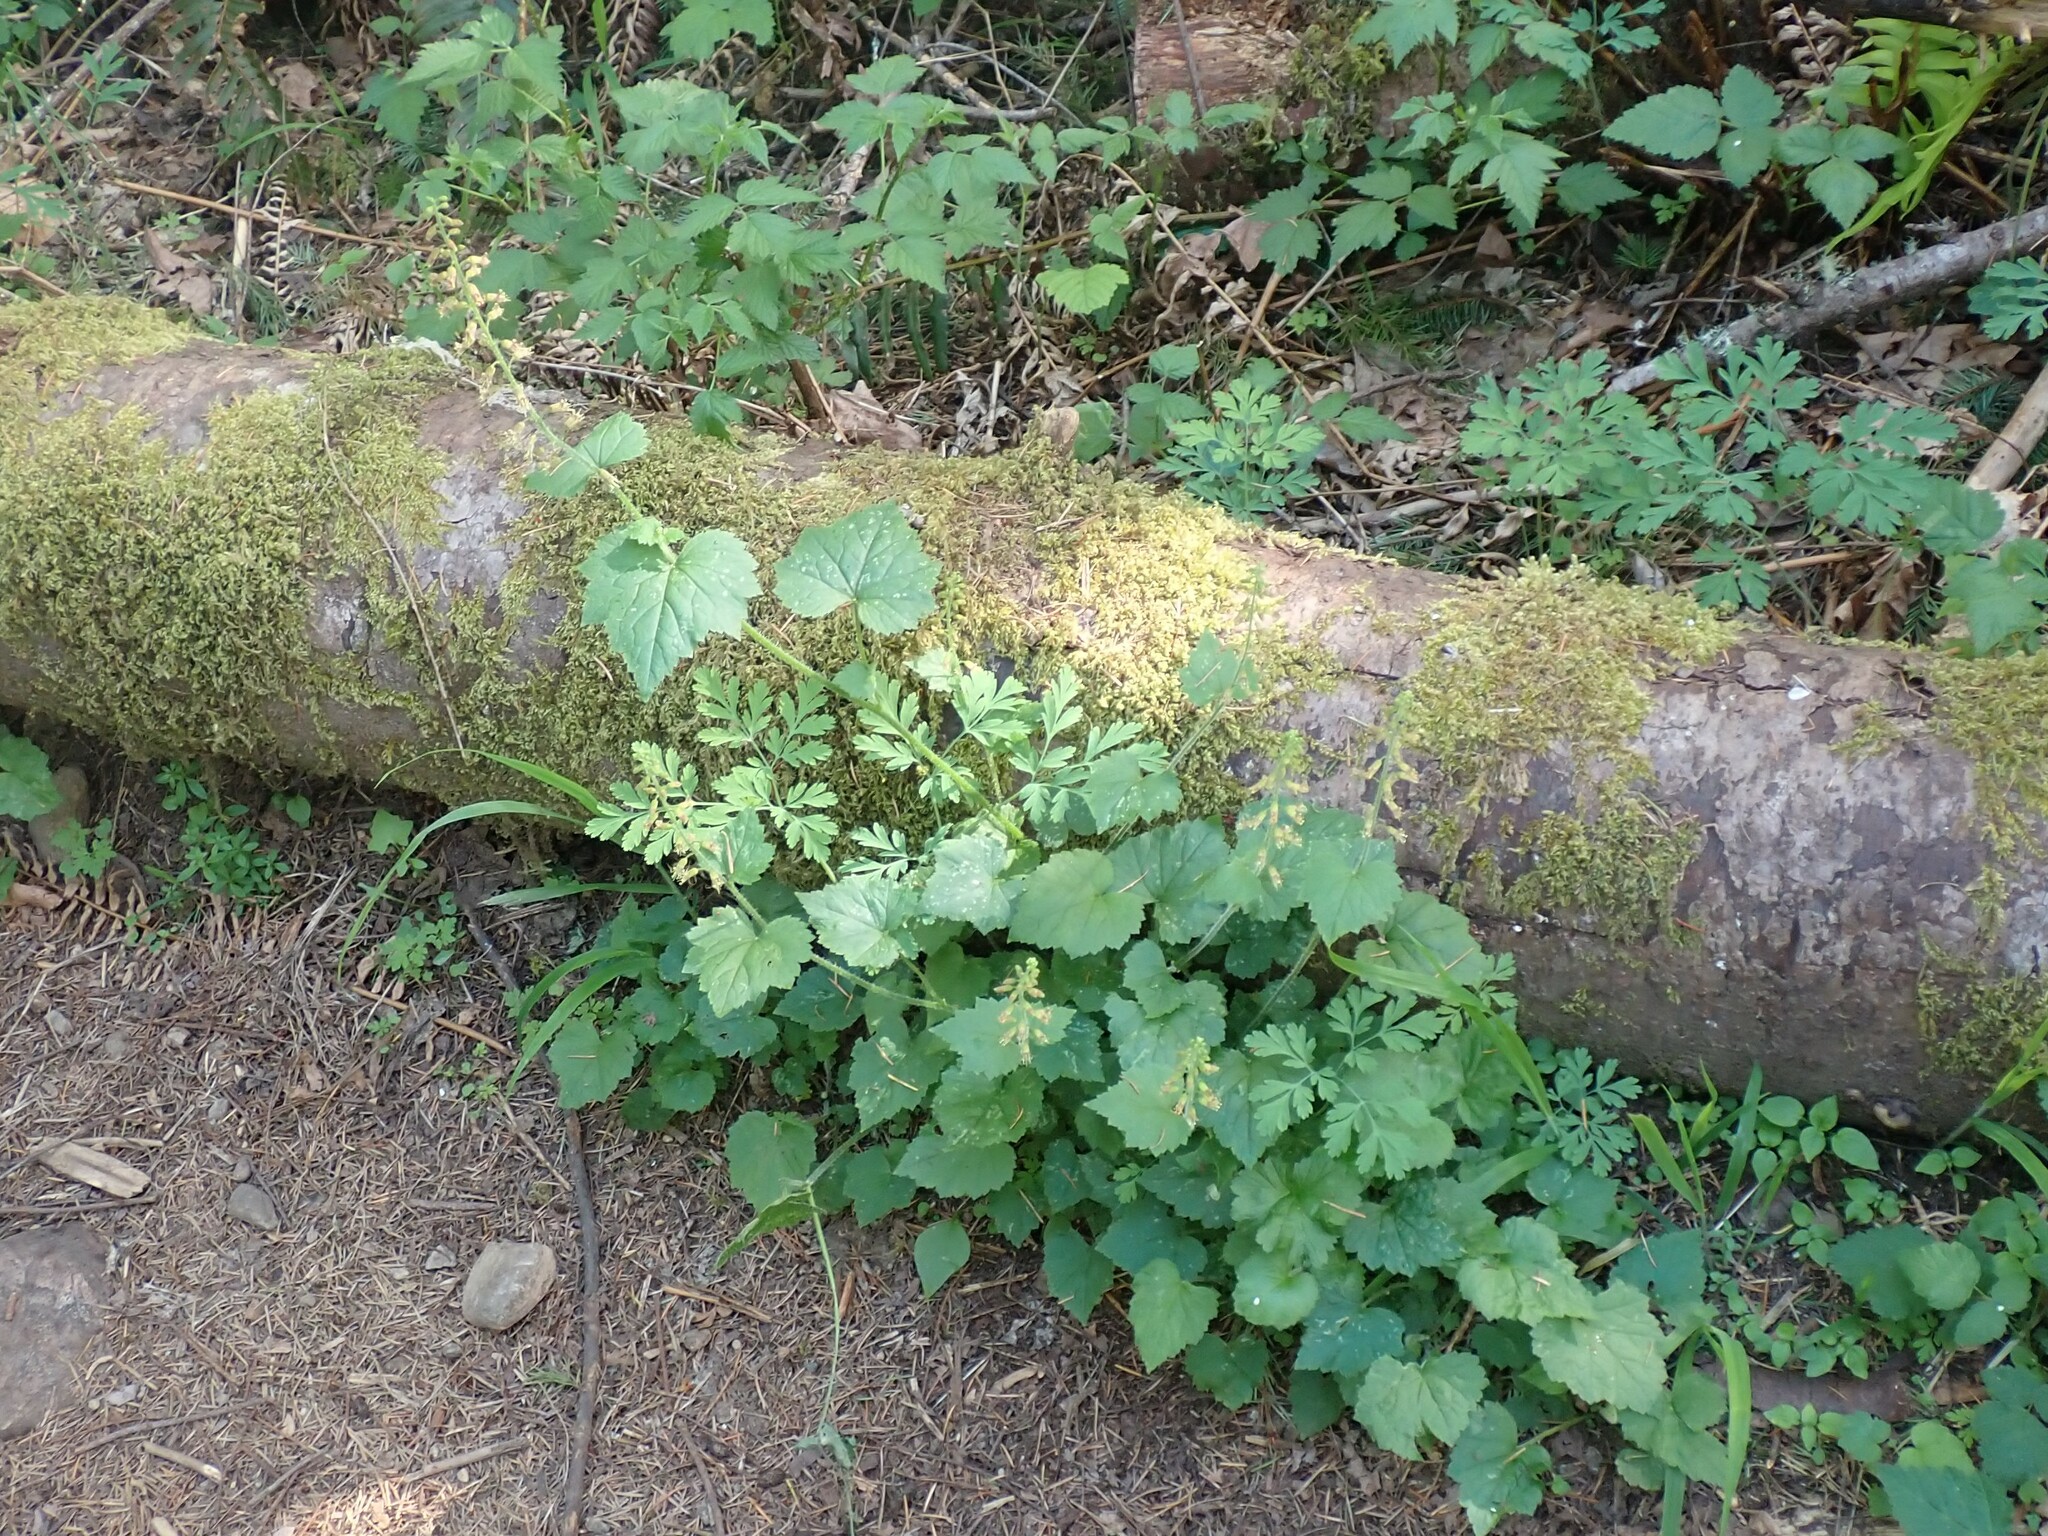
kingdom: Plantae
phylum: Tracheophyta
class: Magnoliopsida
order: Saxifragales
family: Saxifragaceae
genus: Tolmiea
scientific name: Tolmiea menziesii
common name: Pick-a-back-plant
